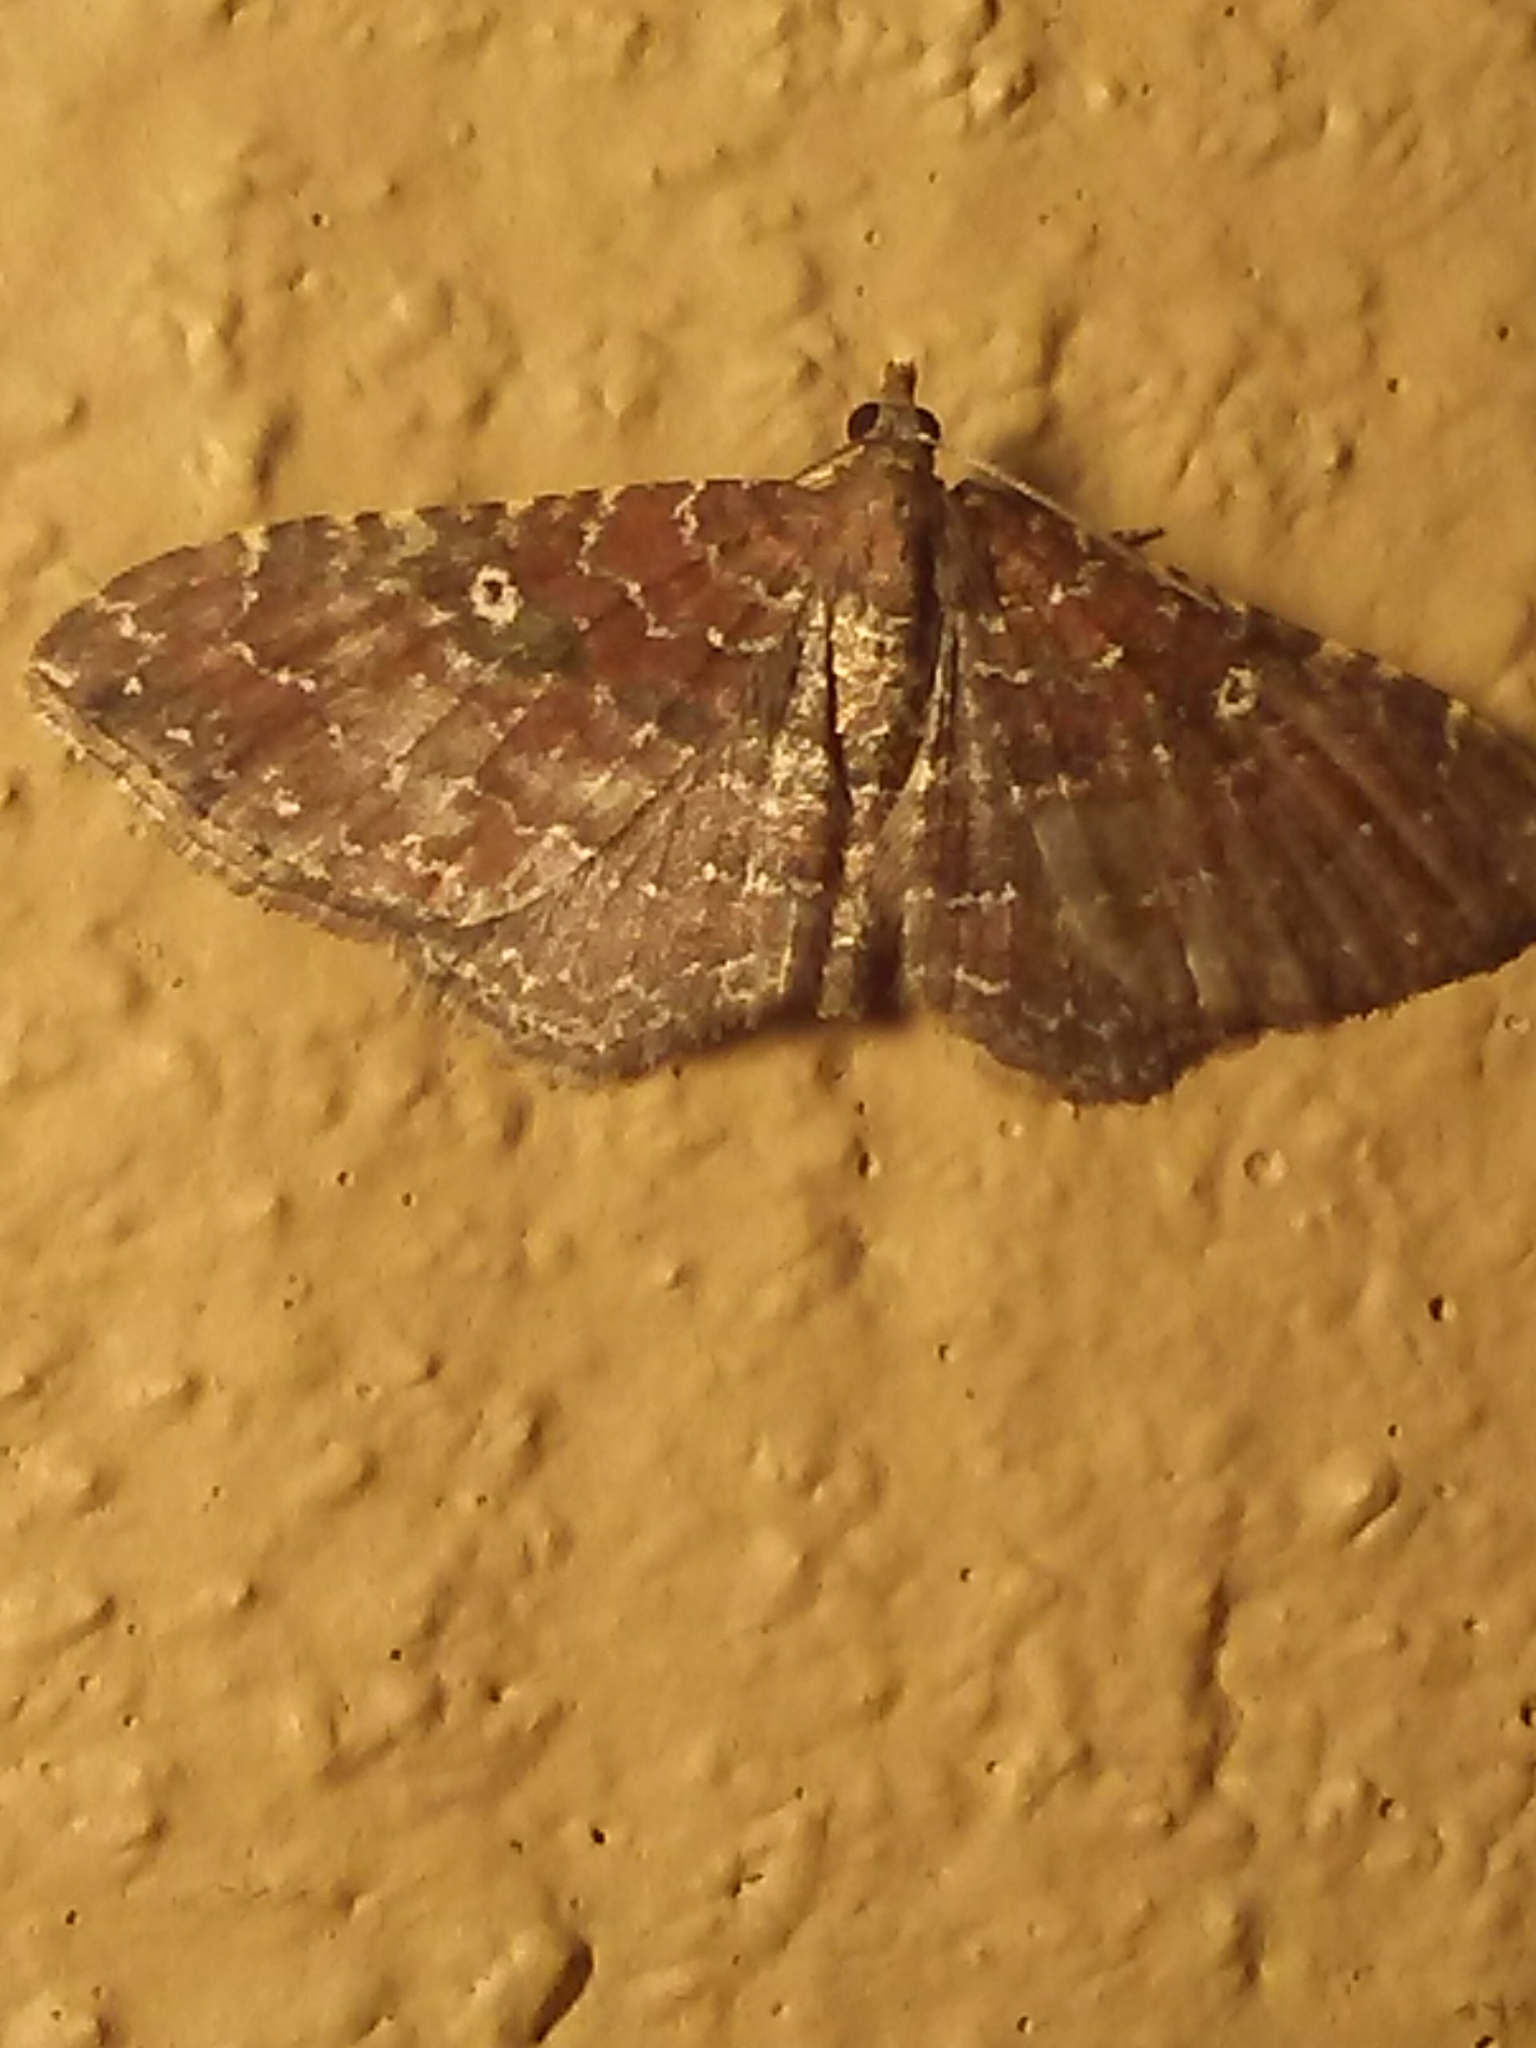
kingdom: Animalia
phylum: Arthropoda
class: Insecta
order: Lepidoptera
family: Geometridae
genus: Orthonama
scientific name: Orthonama obstipata
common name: The gem
